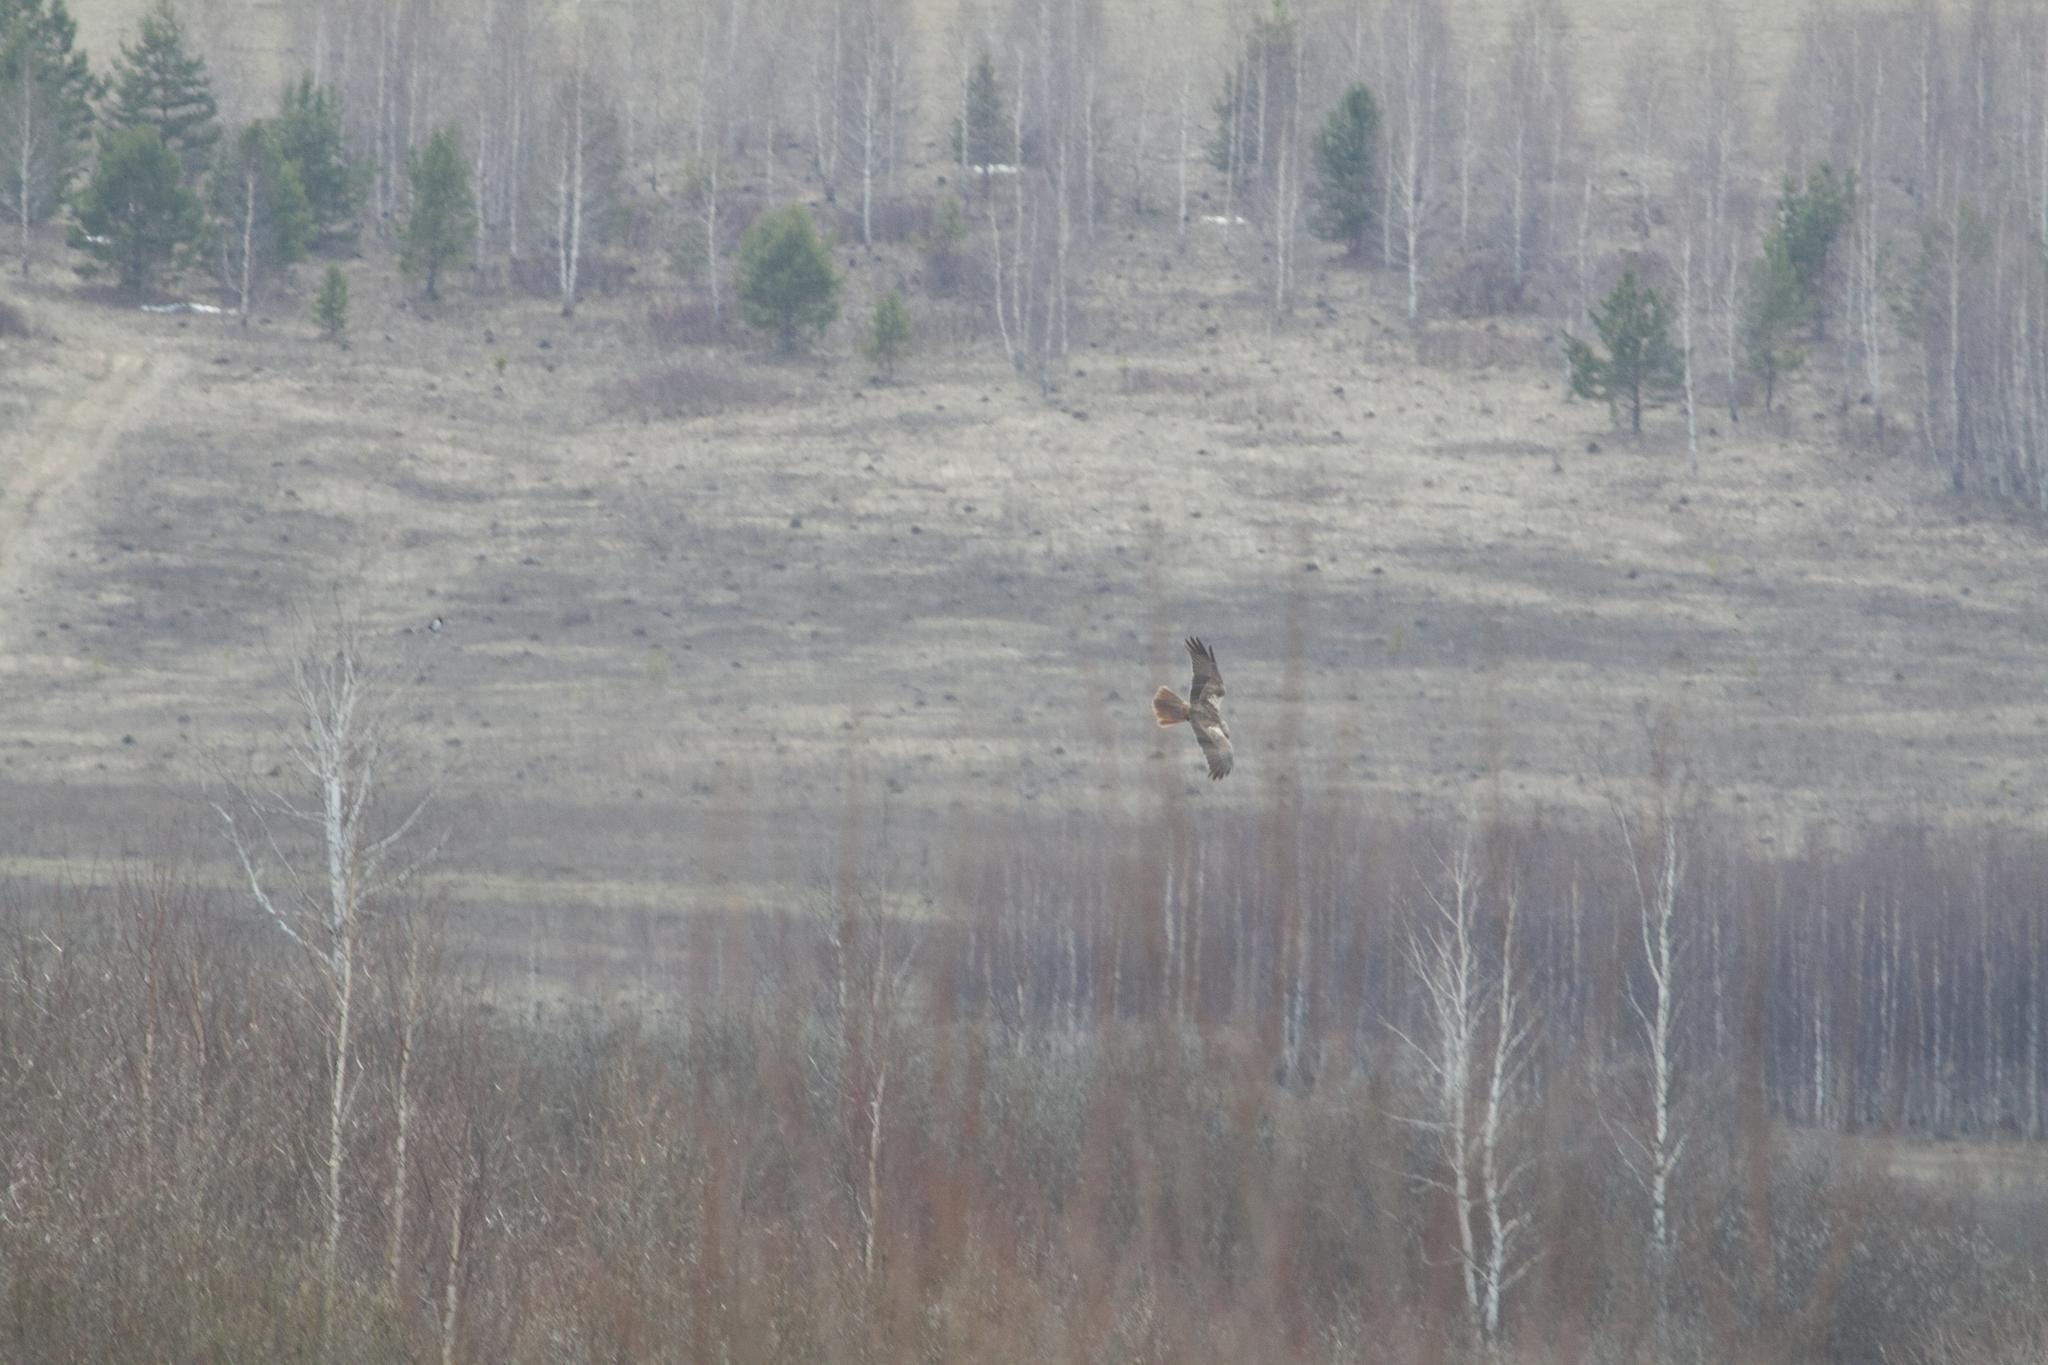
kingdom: Animalia
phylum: Chordata
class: Aves
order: Accipitriformes
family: Accipitridae
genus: Circus
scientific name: Circus aeruginosus
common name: Western marsh harrier
